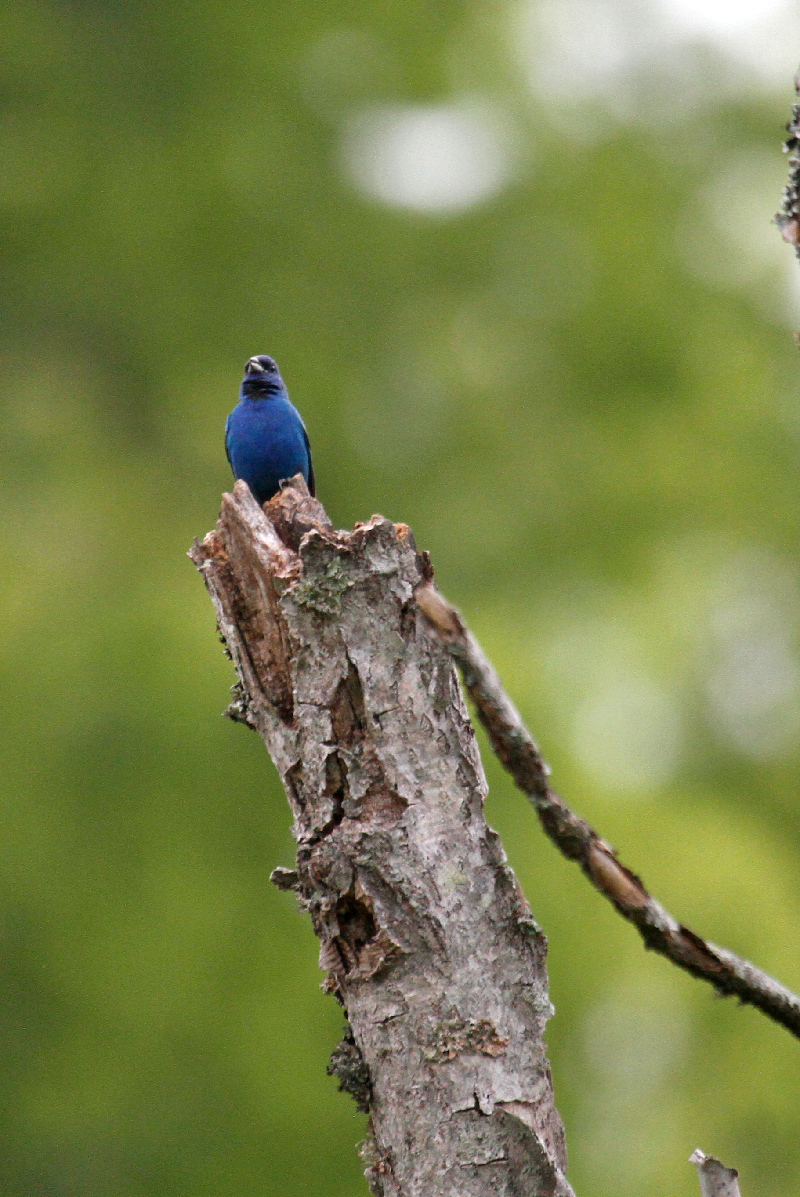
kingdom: Animalia
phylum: Chordata
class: Aves
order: Passeriformes
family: Cardinalidae
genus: Passerina
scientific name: Passerina cyanea
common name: Indigo bunting
